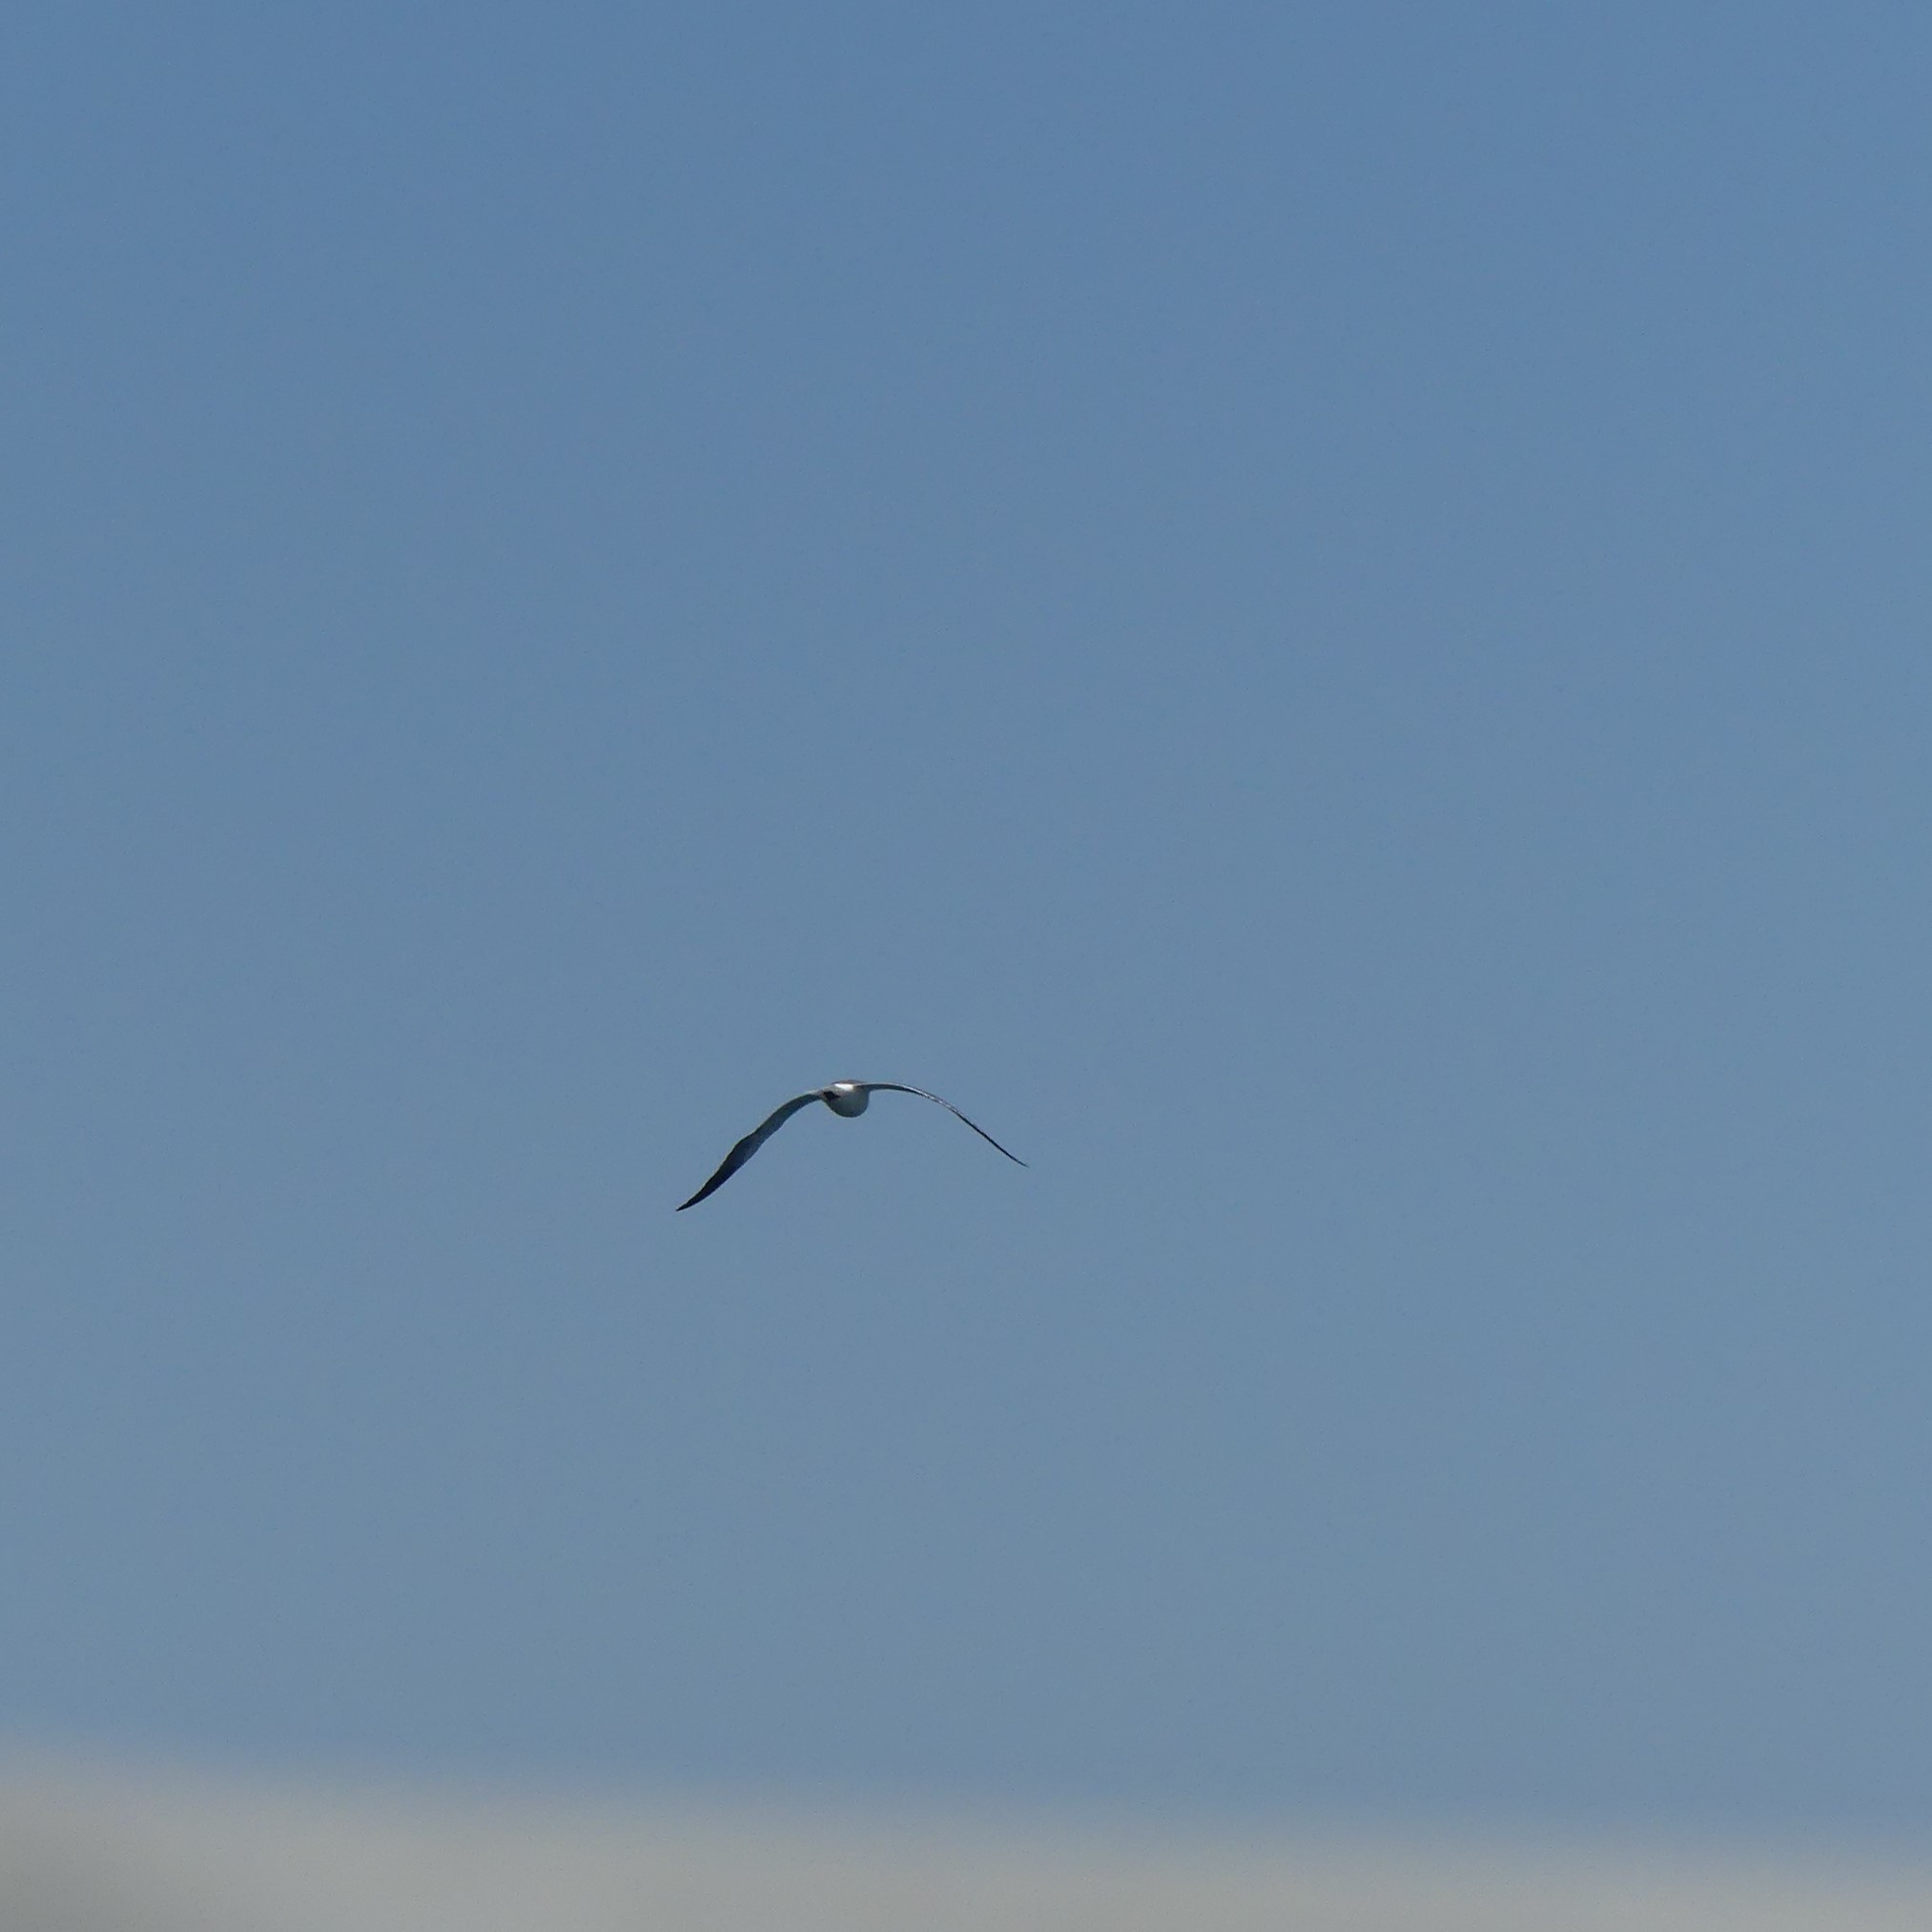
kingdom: Animalia
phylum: Chordata
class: Aves
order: Charadriiformes
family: Laridae
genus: Leucophaeus
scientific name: Leucophaeus atricilla
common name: Laughing gull
